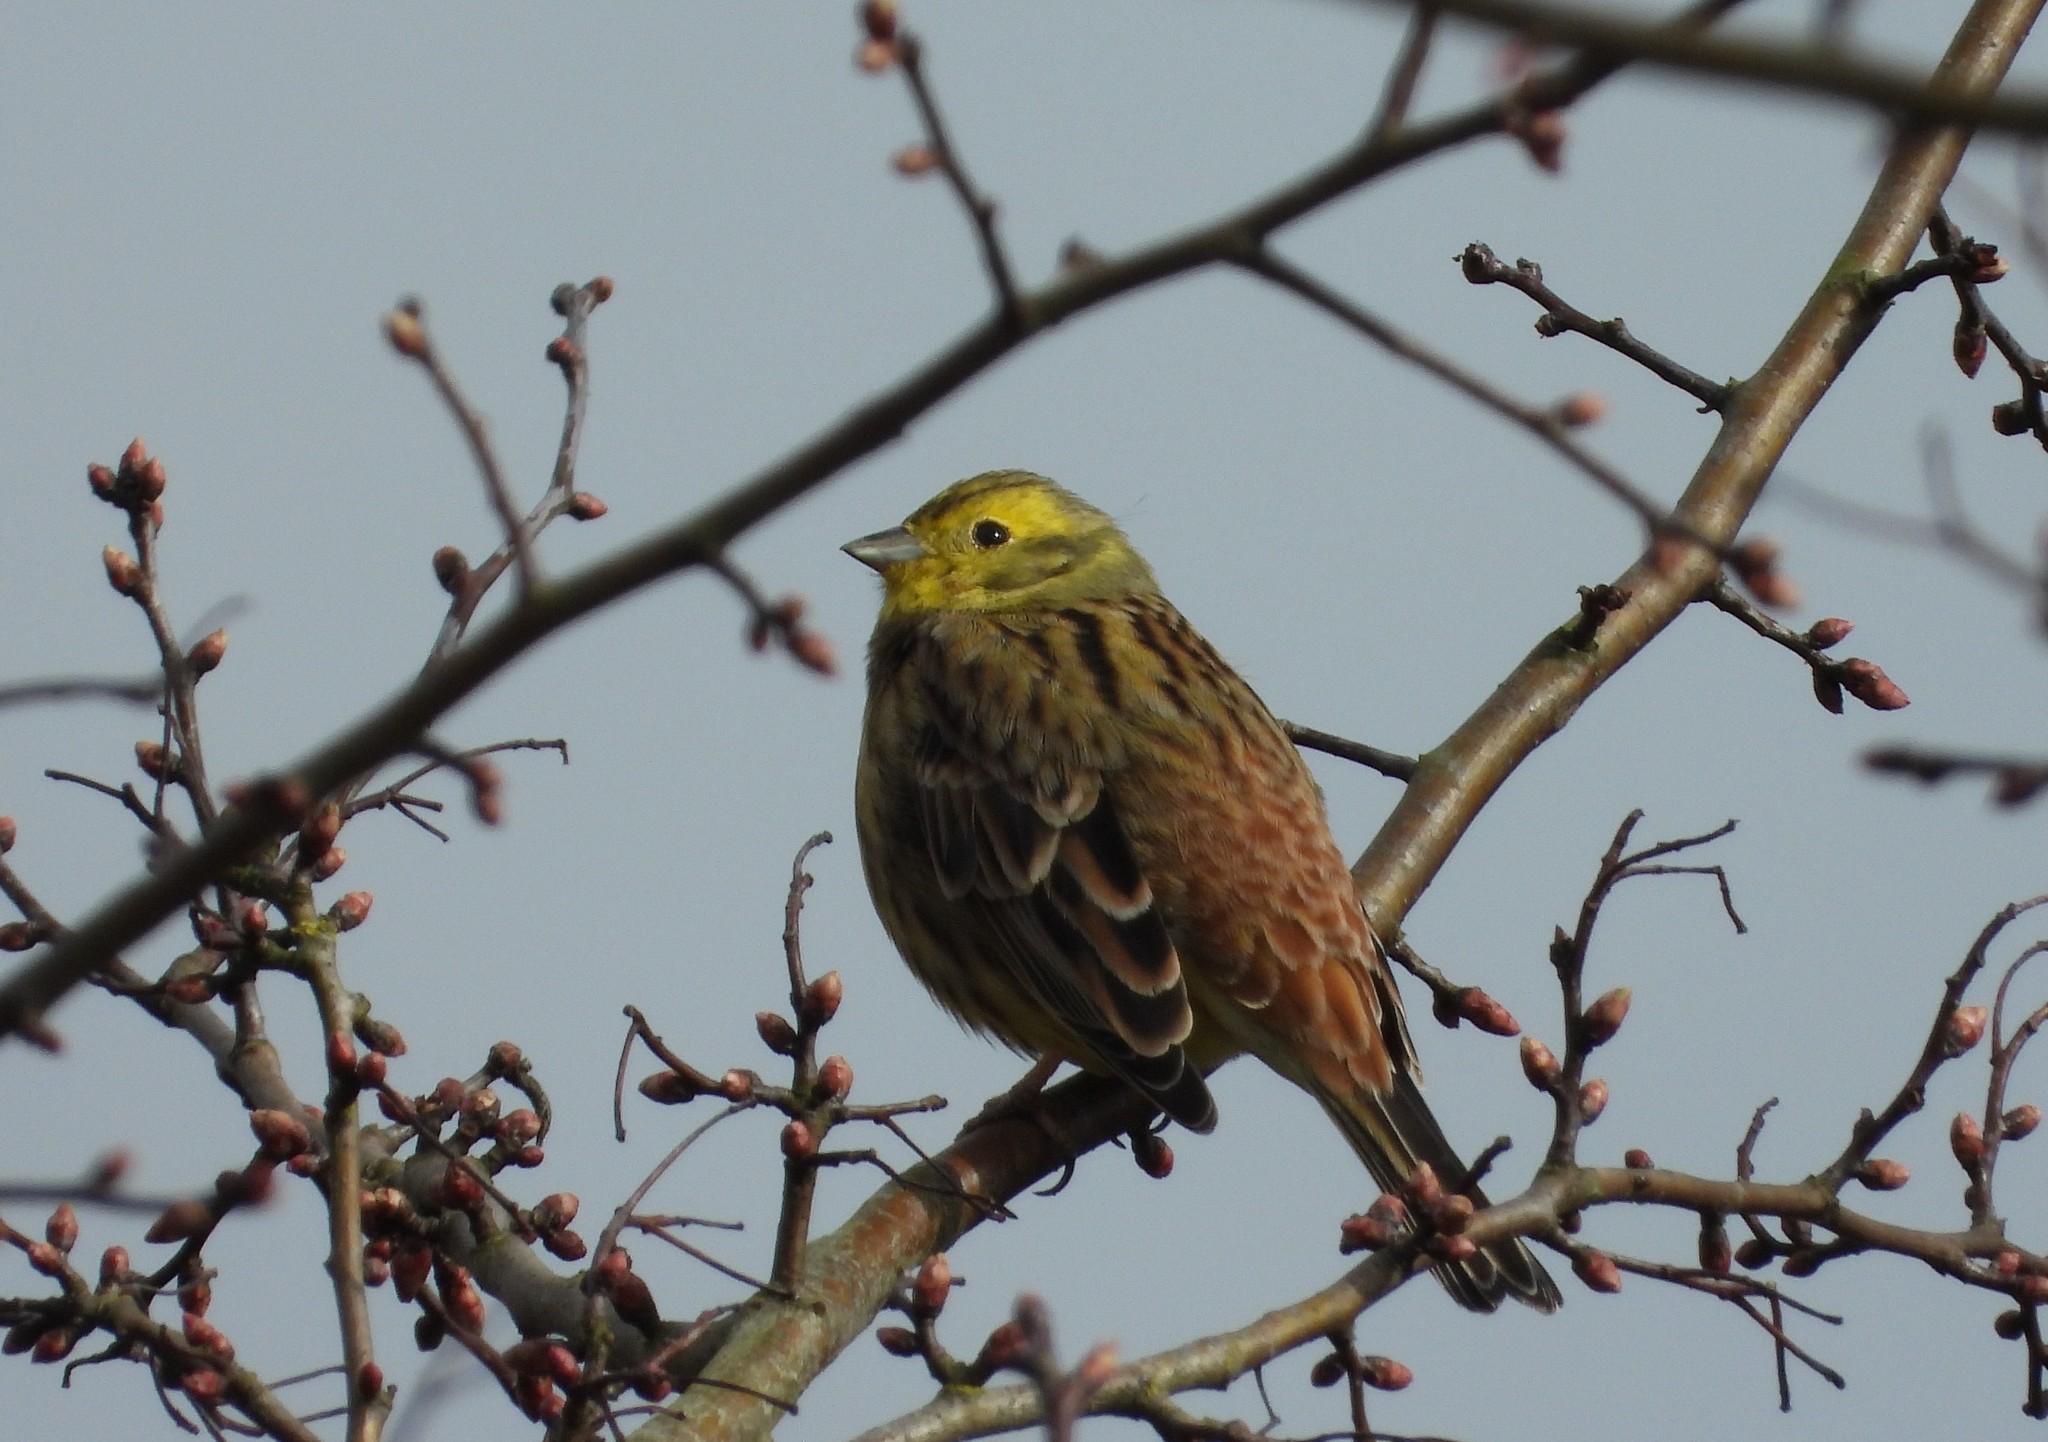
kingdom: Animalia
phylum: Chordata
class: Aves
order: Passeriformes
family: Emberizidae
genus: Emberiza
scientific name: Emberiza citrinella
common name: Yellowhammer
